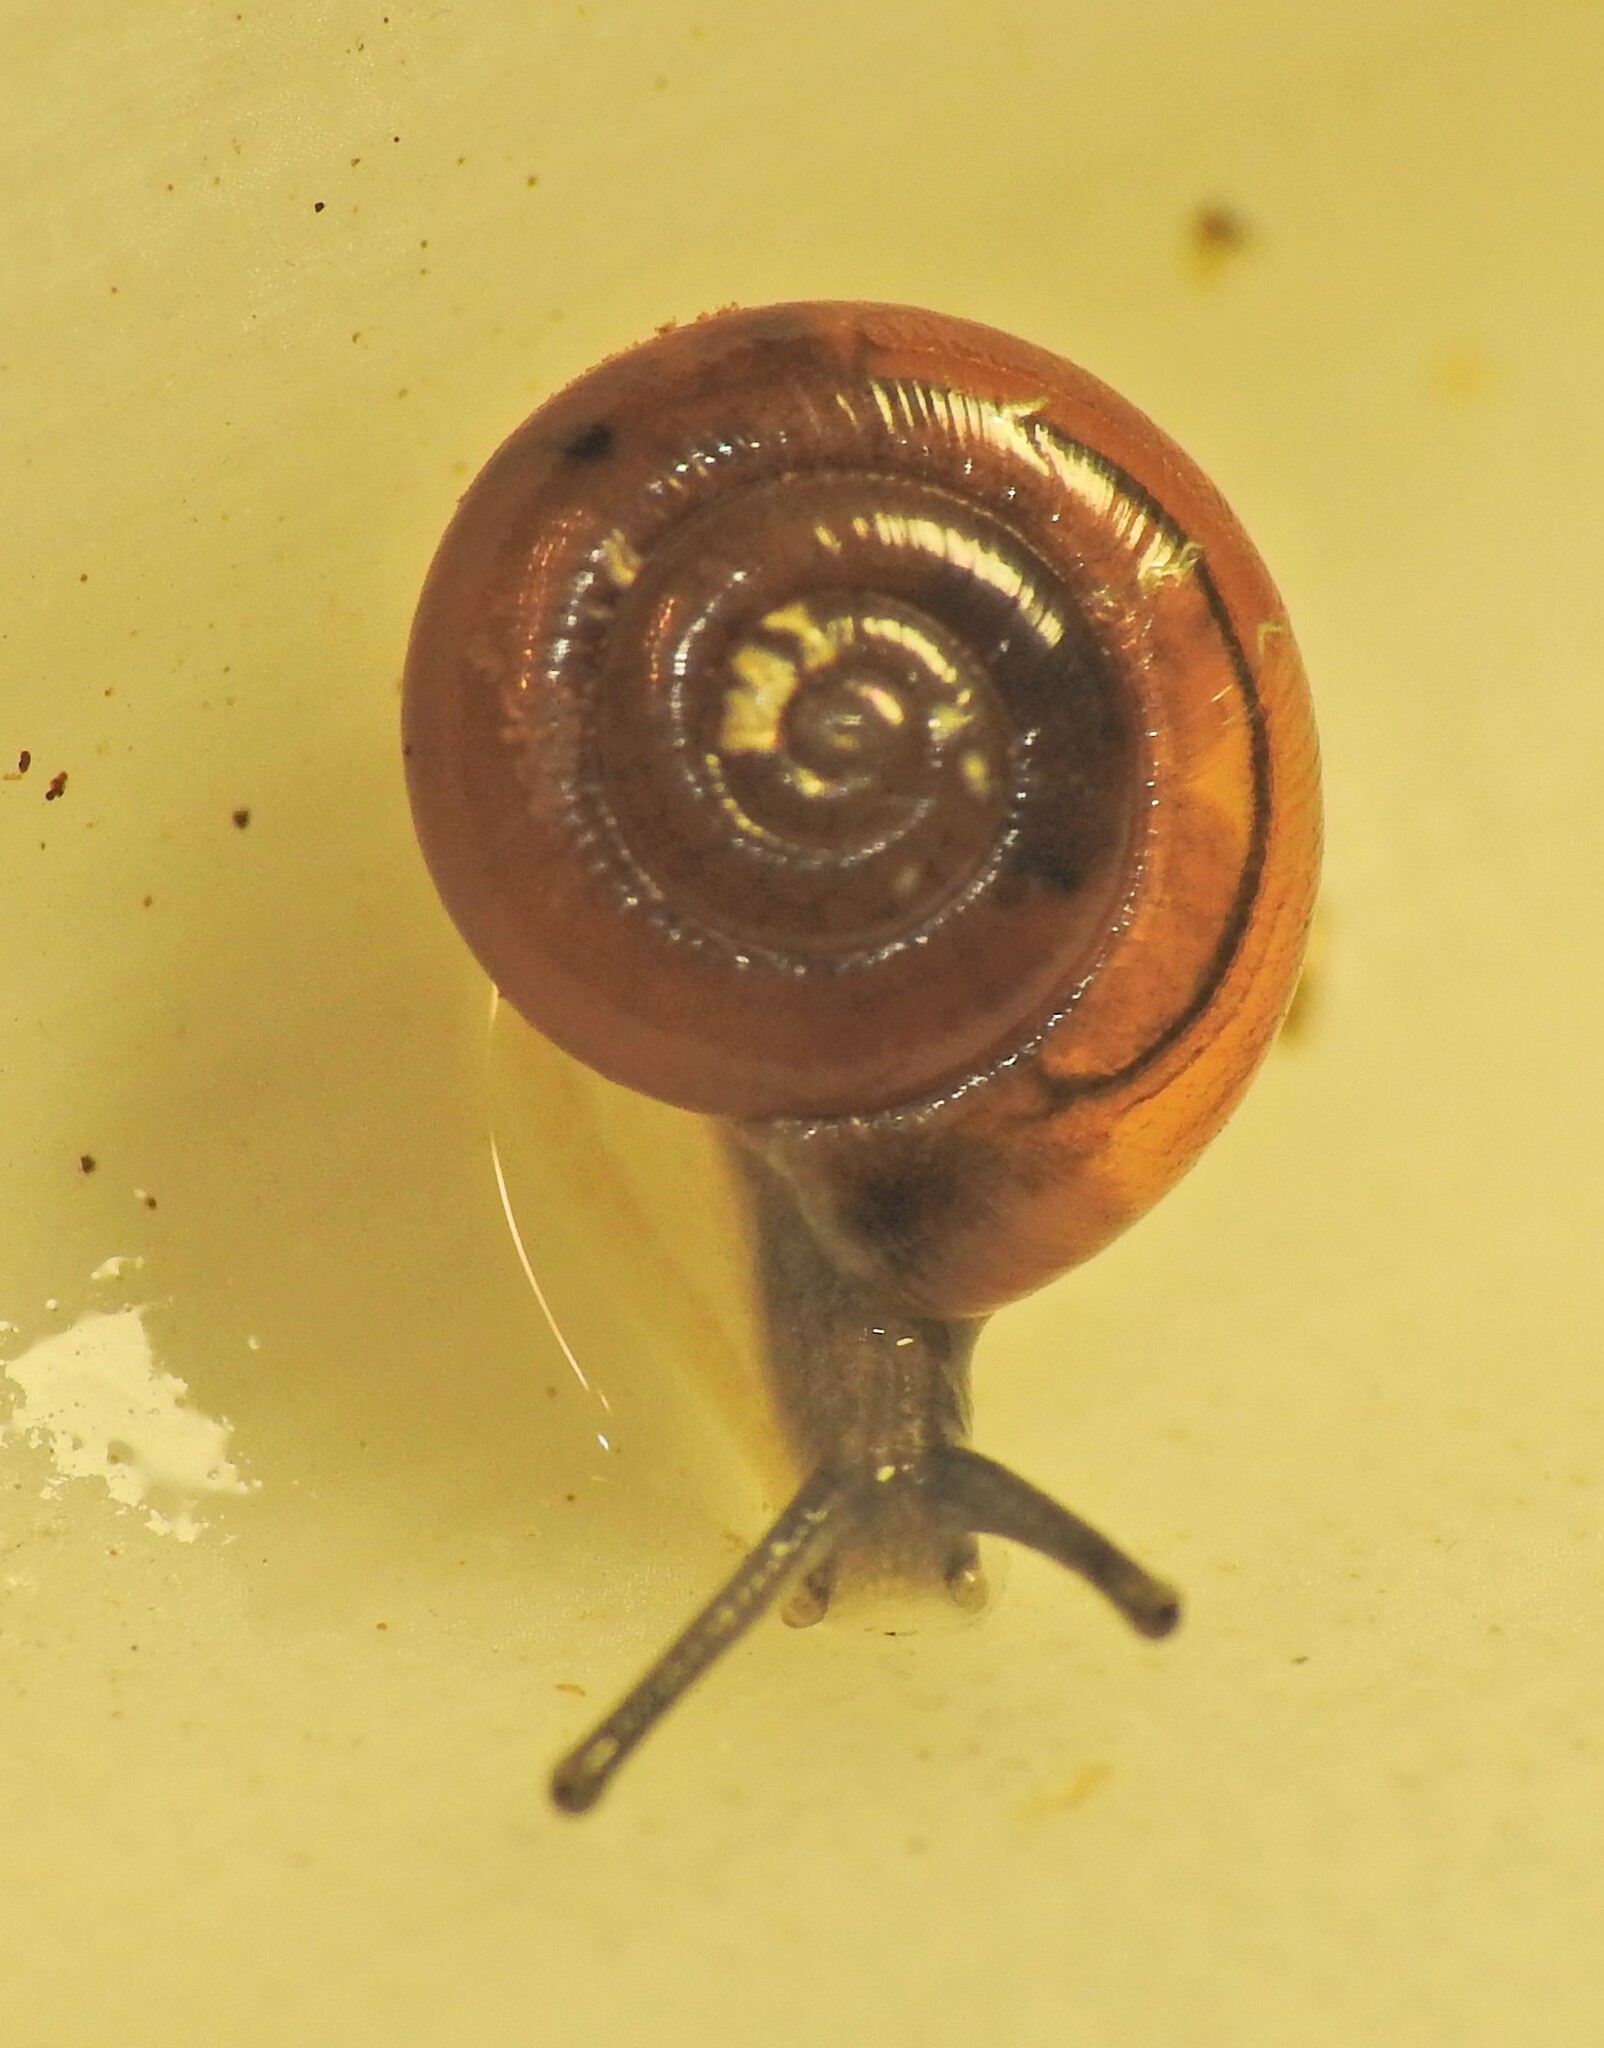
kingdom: Animalia
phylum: Mollusca
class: Gastropoda
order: Stylommatophora
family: Gastrodontidae
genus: Zonitoides
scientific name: Zonitoides arboreus
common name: Quick gloss
